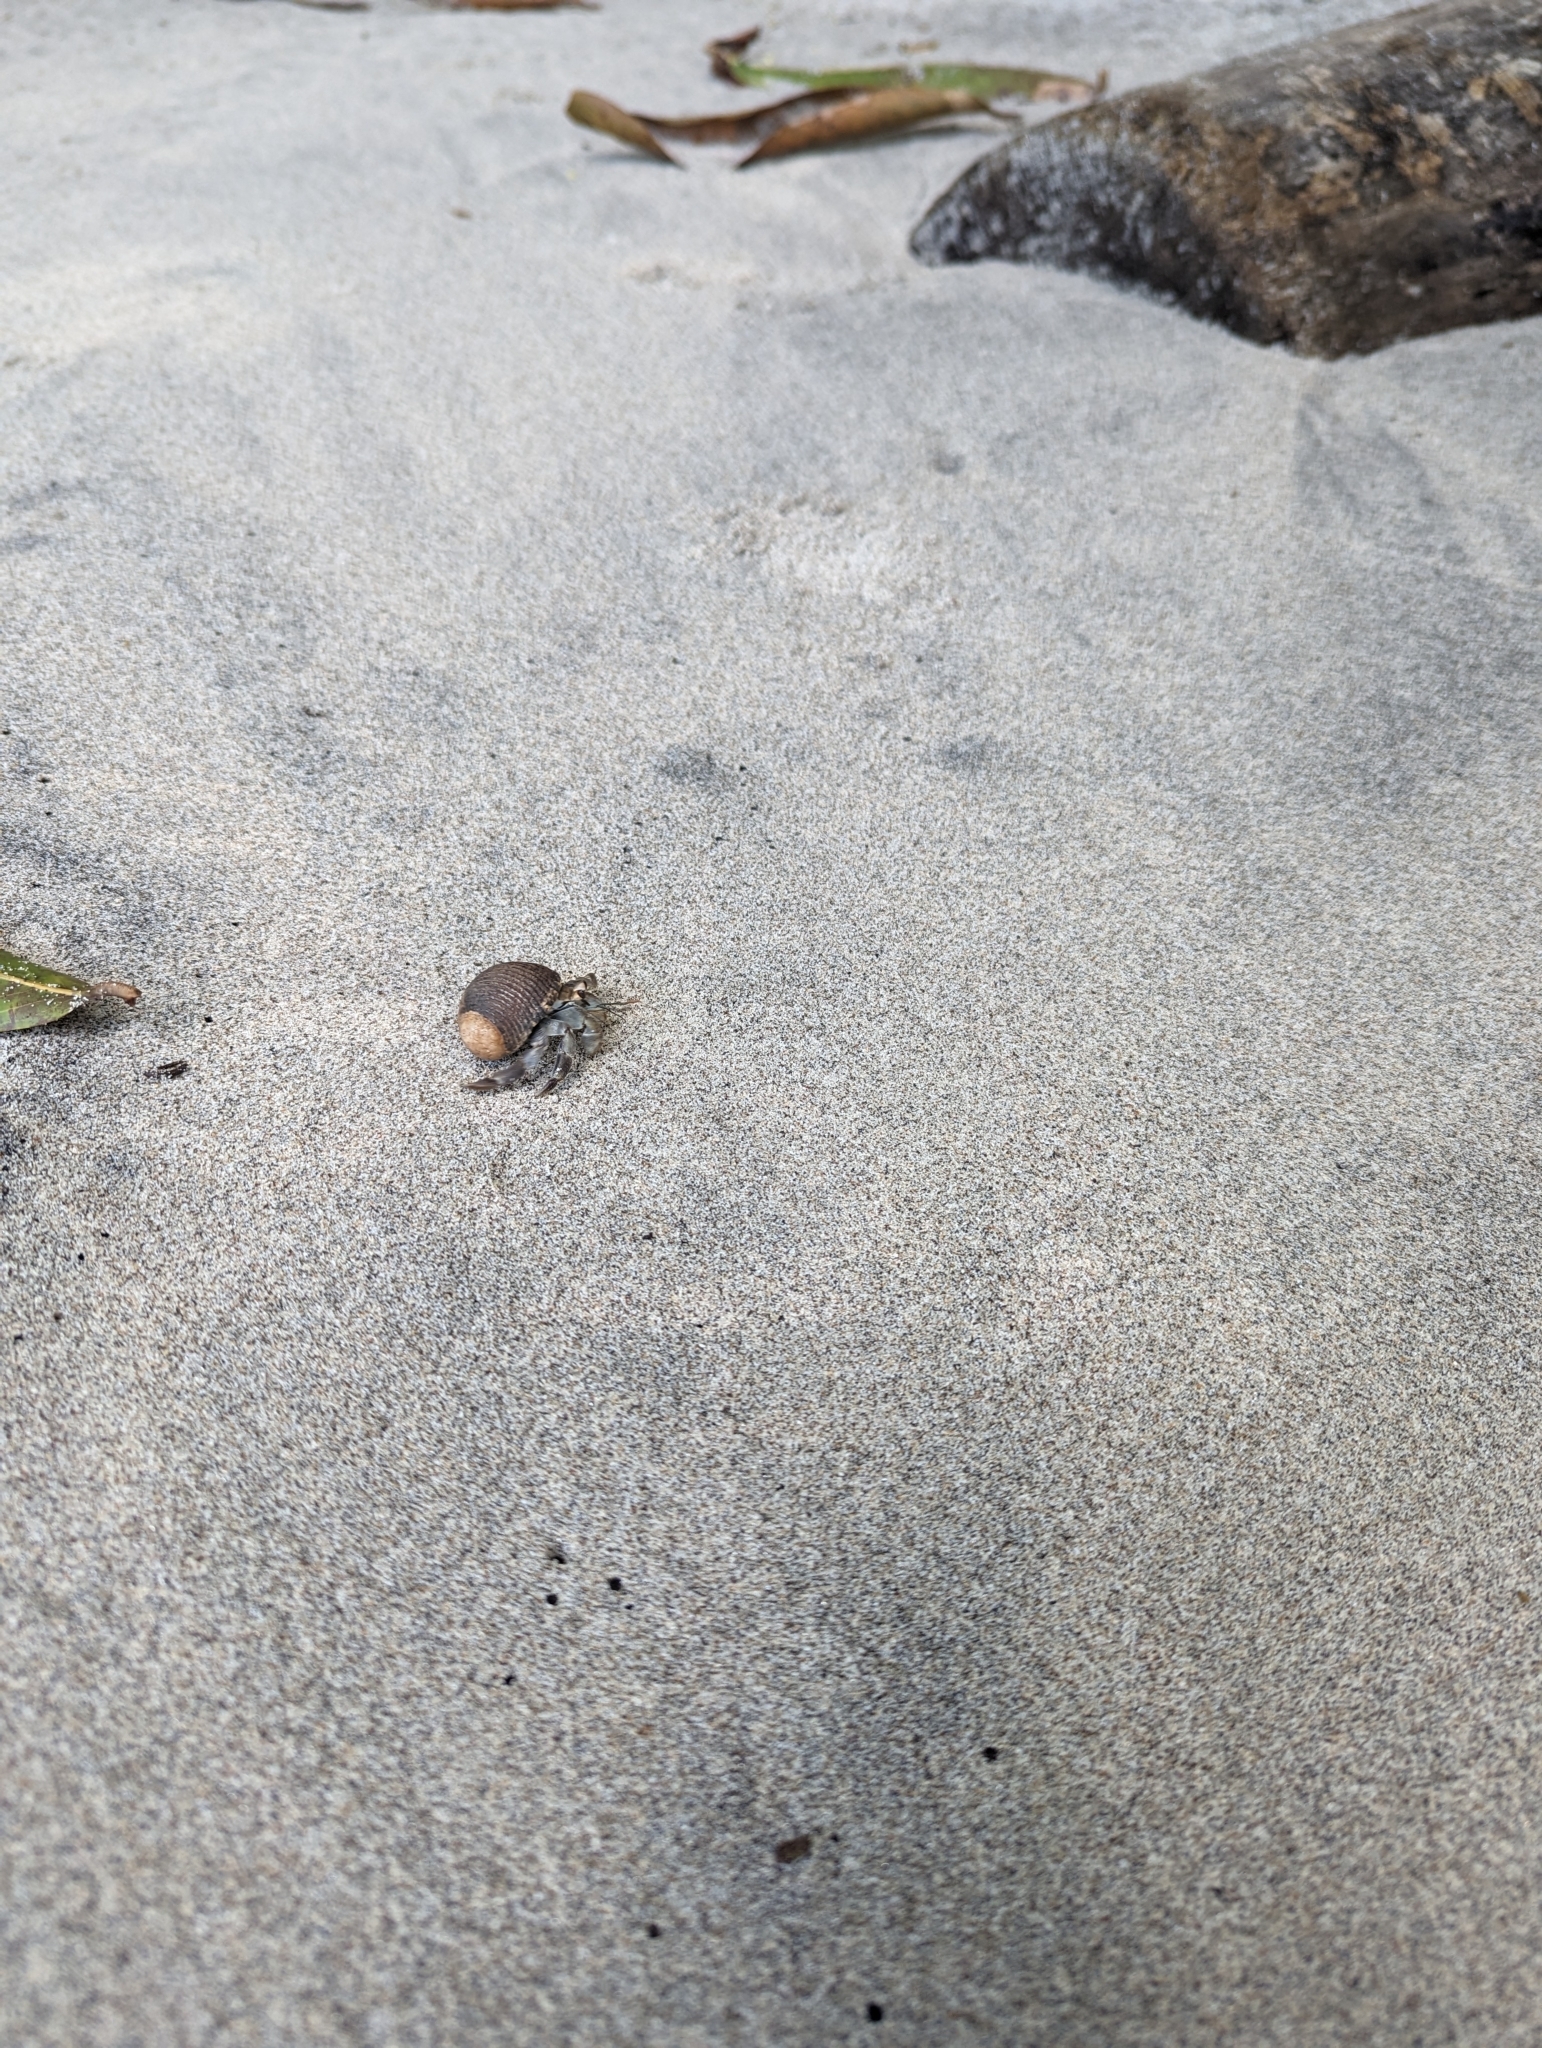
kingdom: Animalia
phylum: Arthropoda
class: Malacostraca
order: Decapoda
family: Coenobitidae
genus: Coenobita
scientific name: Coenobita compressus
